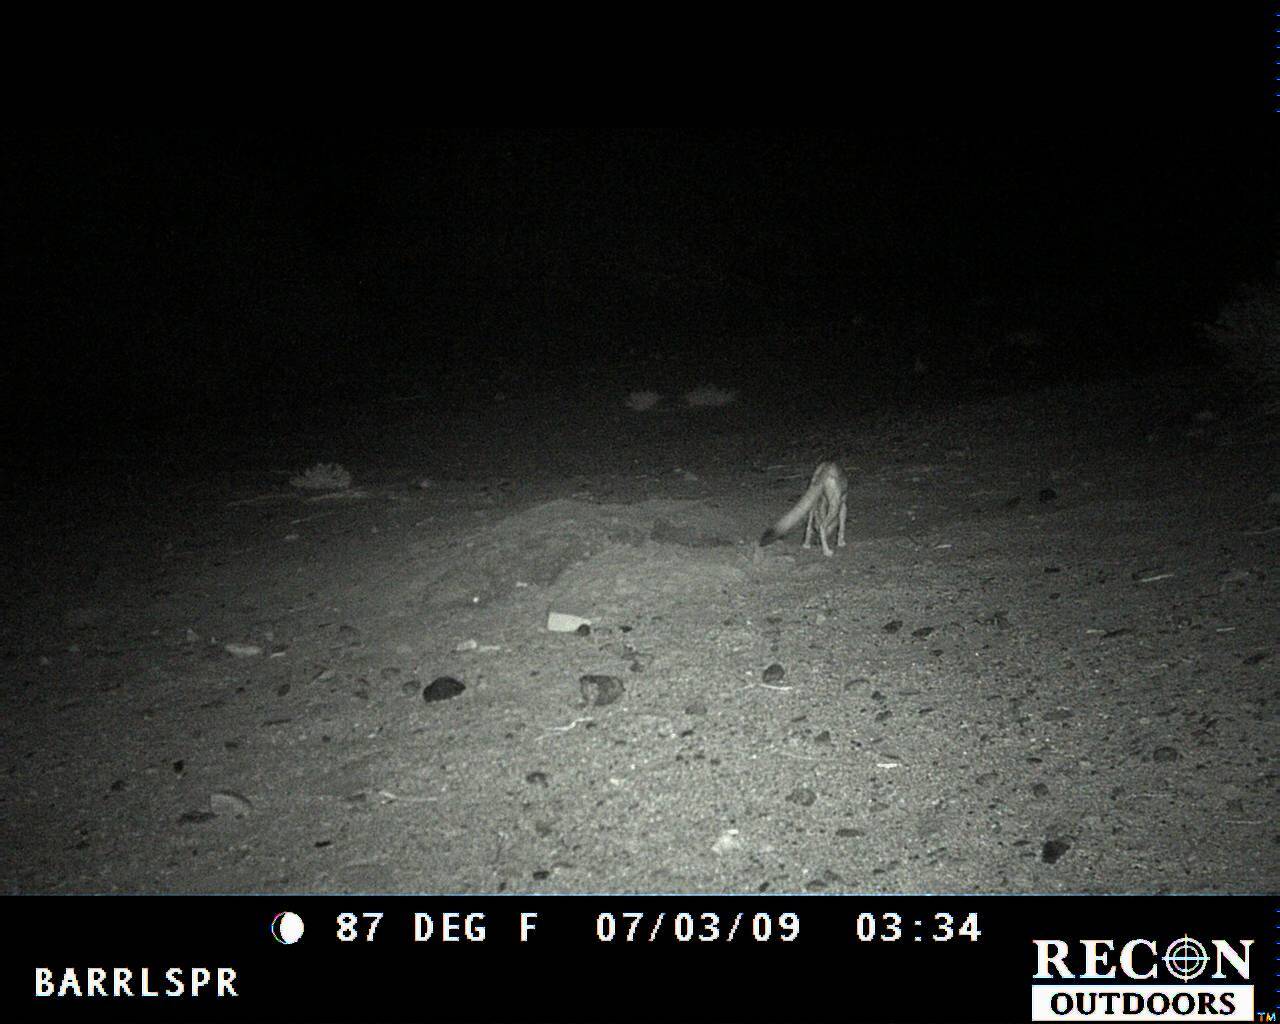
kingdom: Animalia
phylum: Chordata
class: Mammalia
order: Carnivora
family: Canidae
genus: Vulpes
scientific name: Vulpes macrotis
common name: Kit fox
